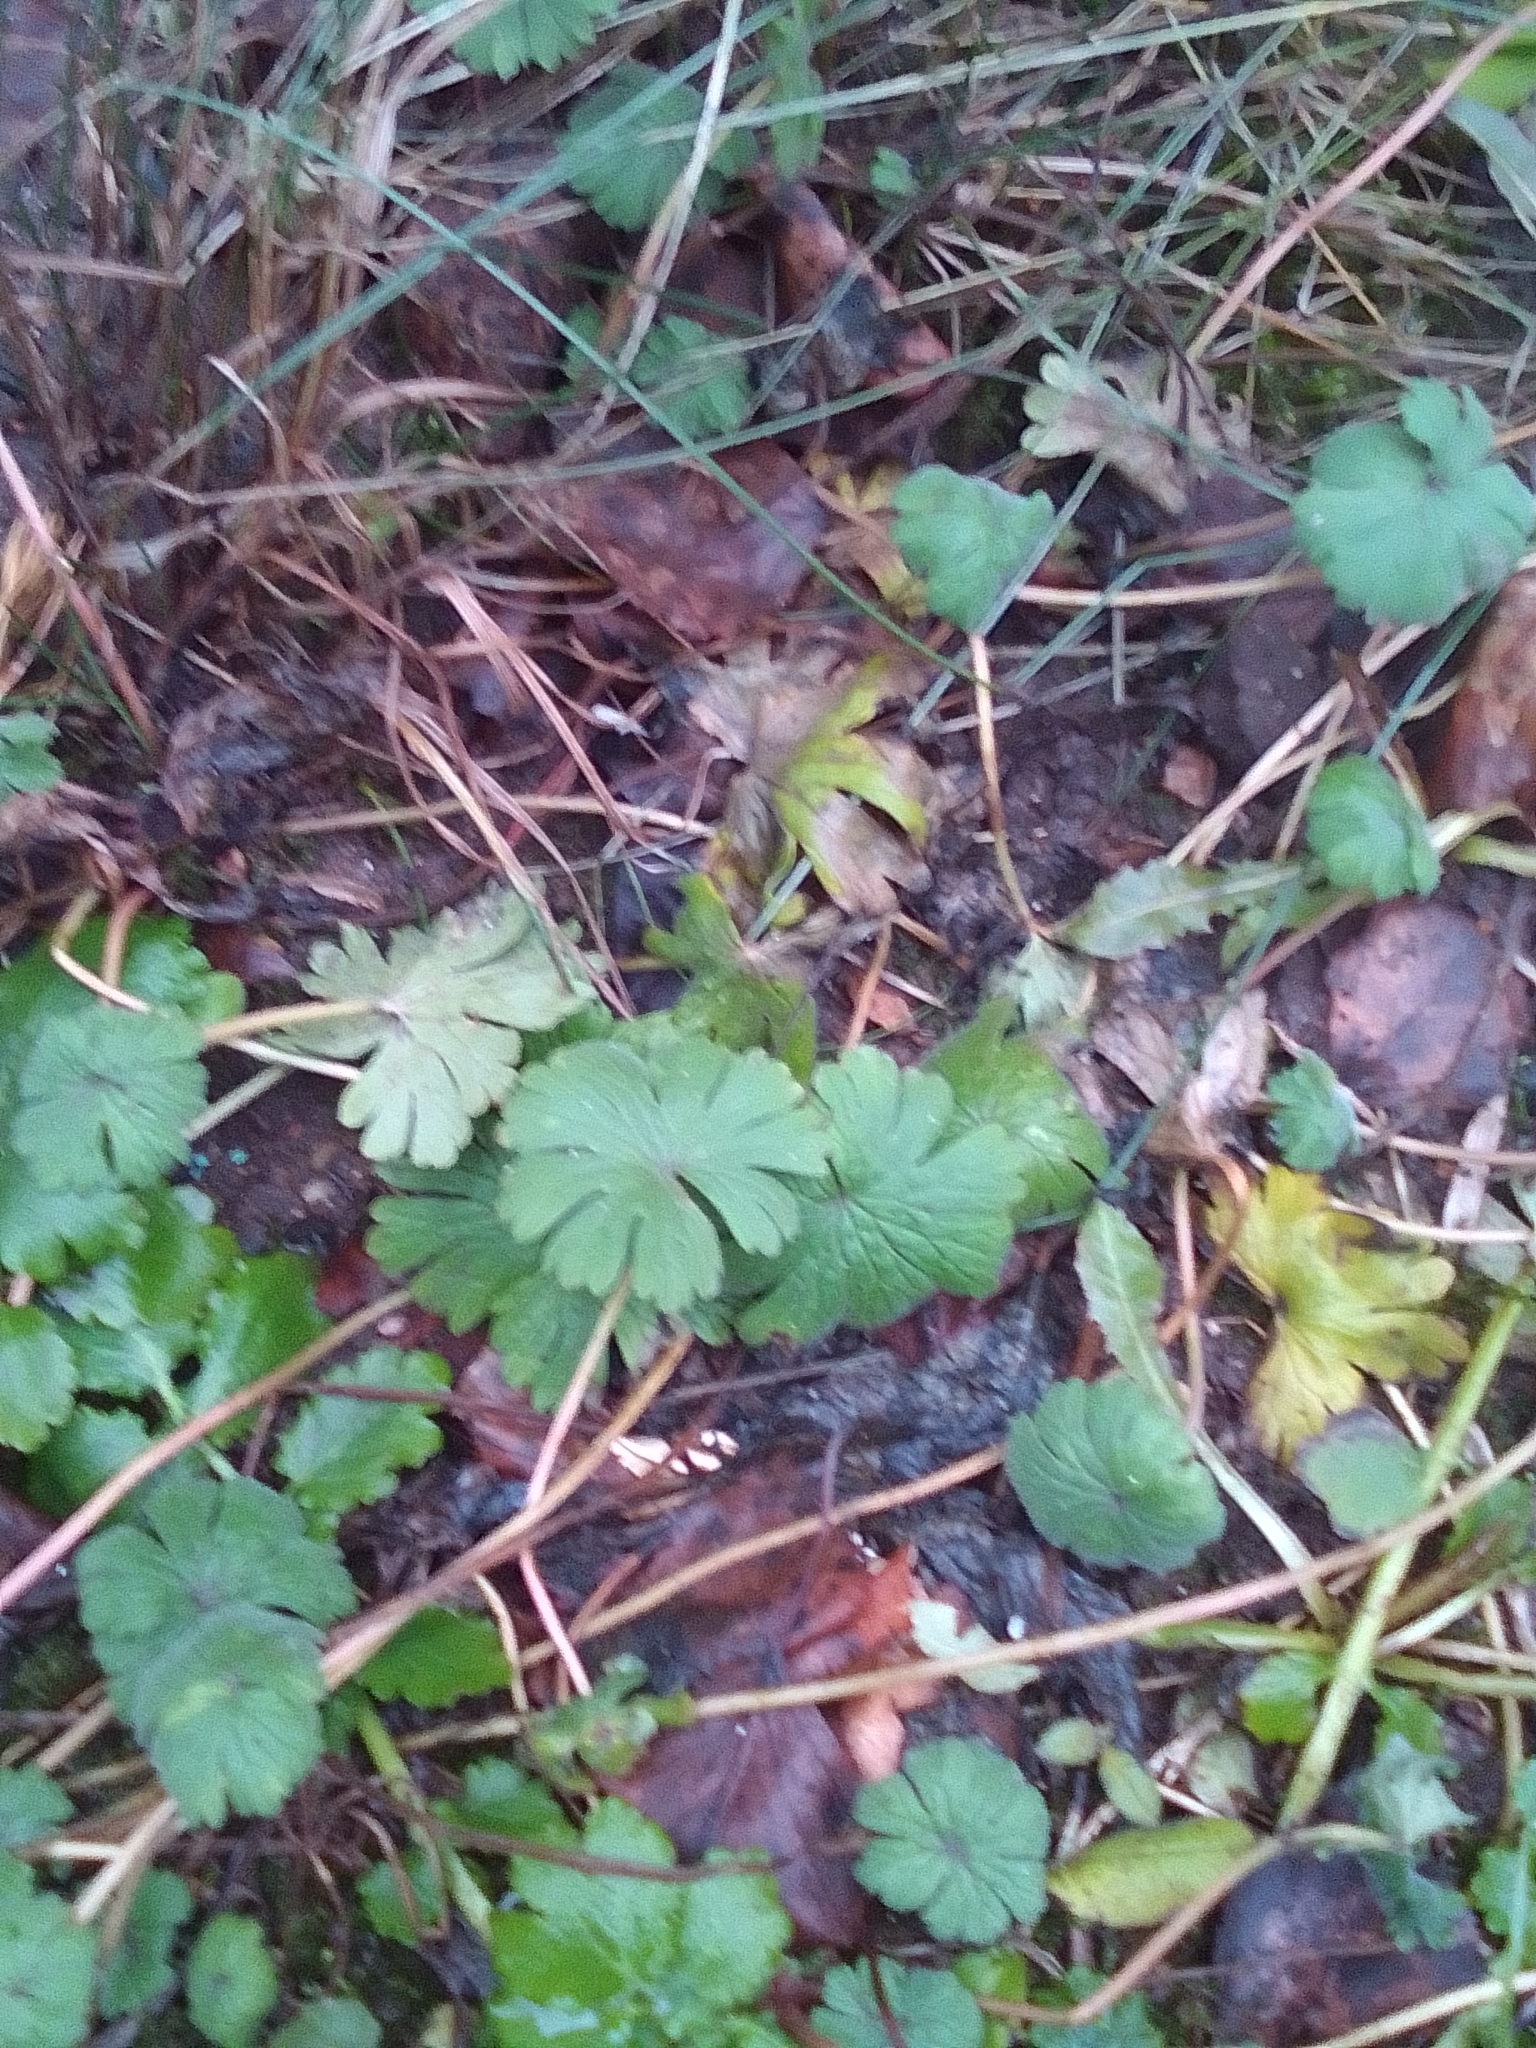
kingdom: Plantae
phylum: Tracheophyta
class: Magnoliopsida
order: Geraniales
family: Geraniaceae
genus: Geranium
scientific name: Geranium pusillum
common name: Small geranium
